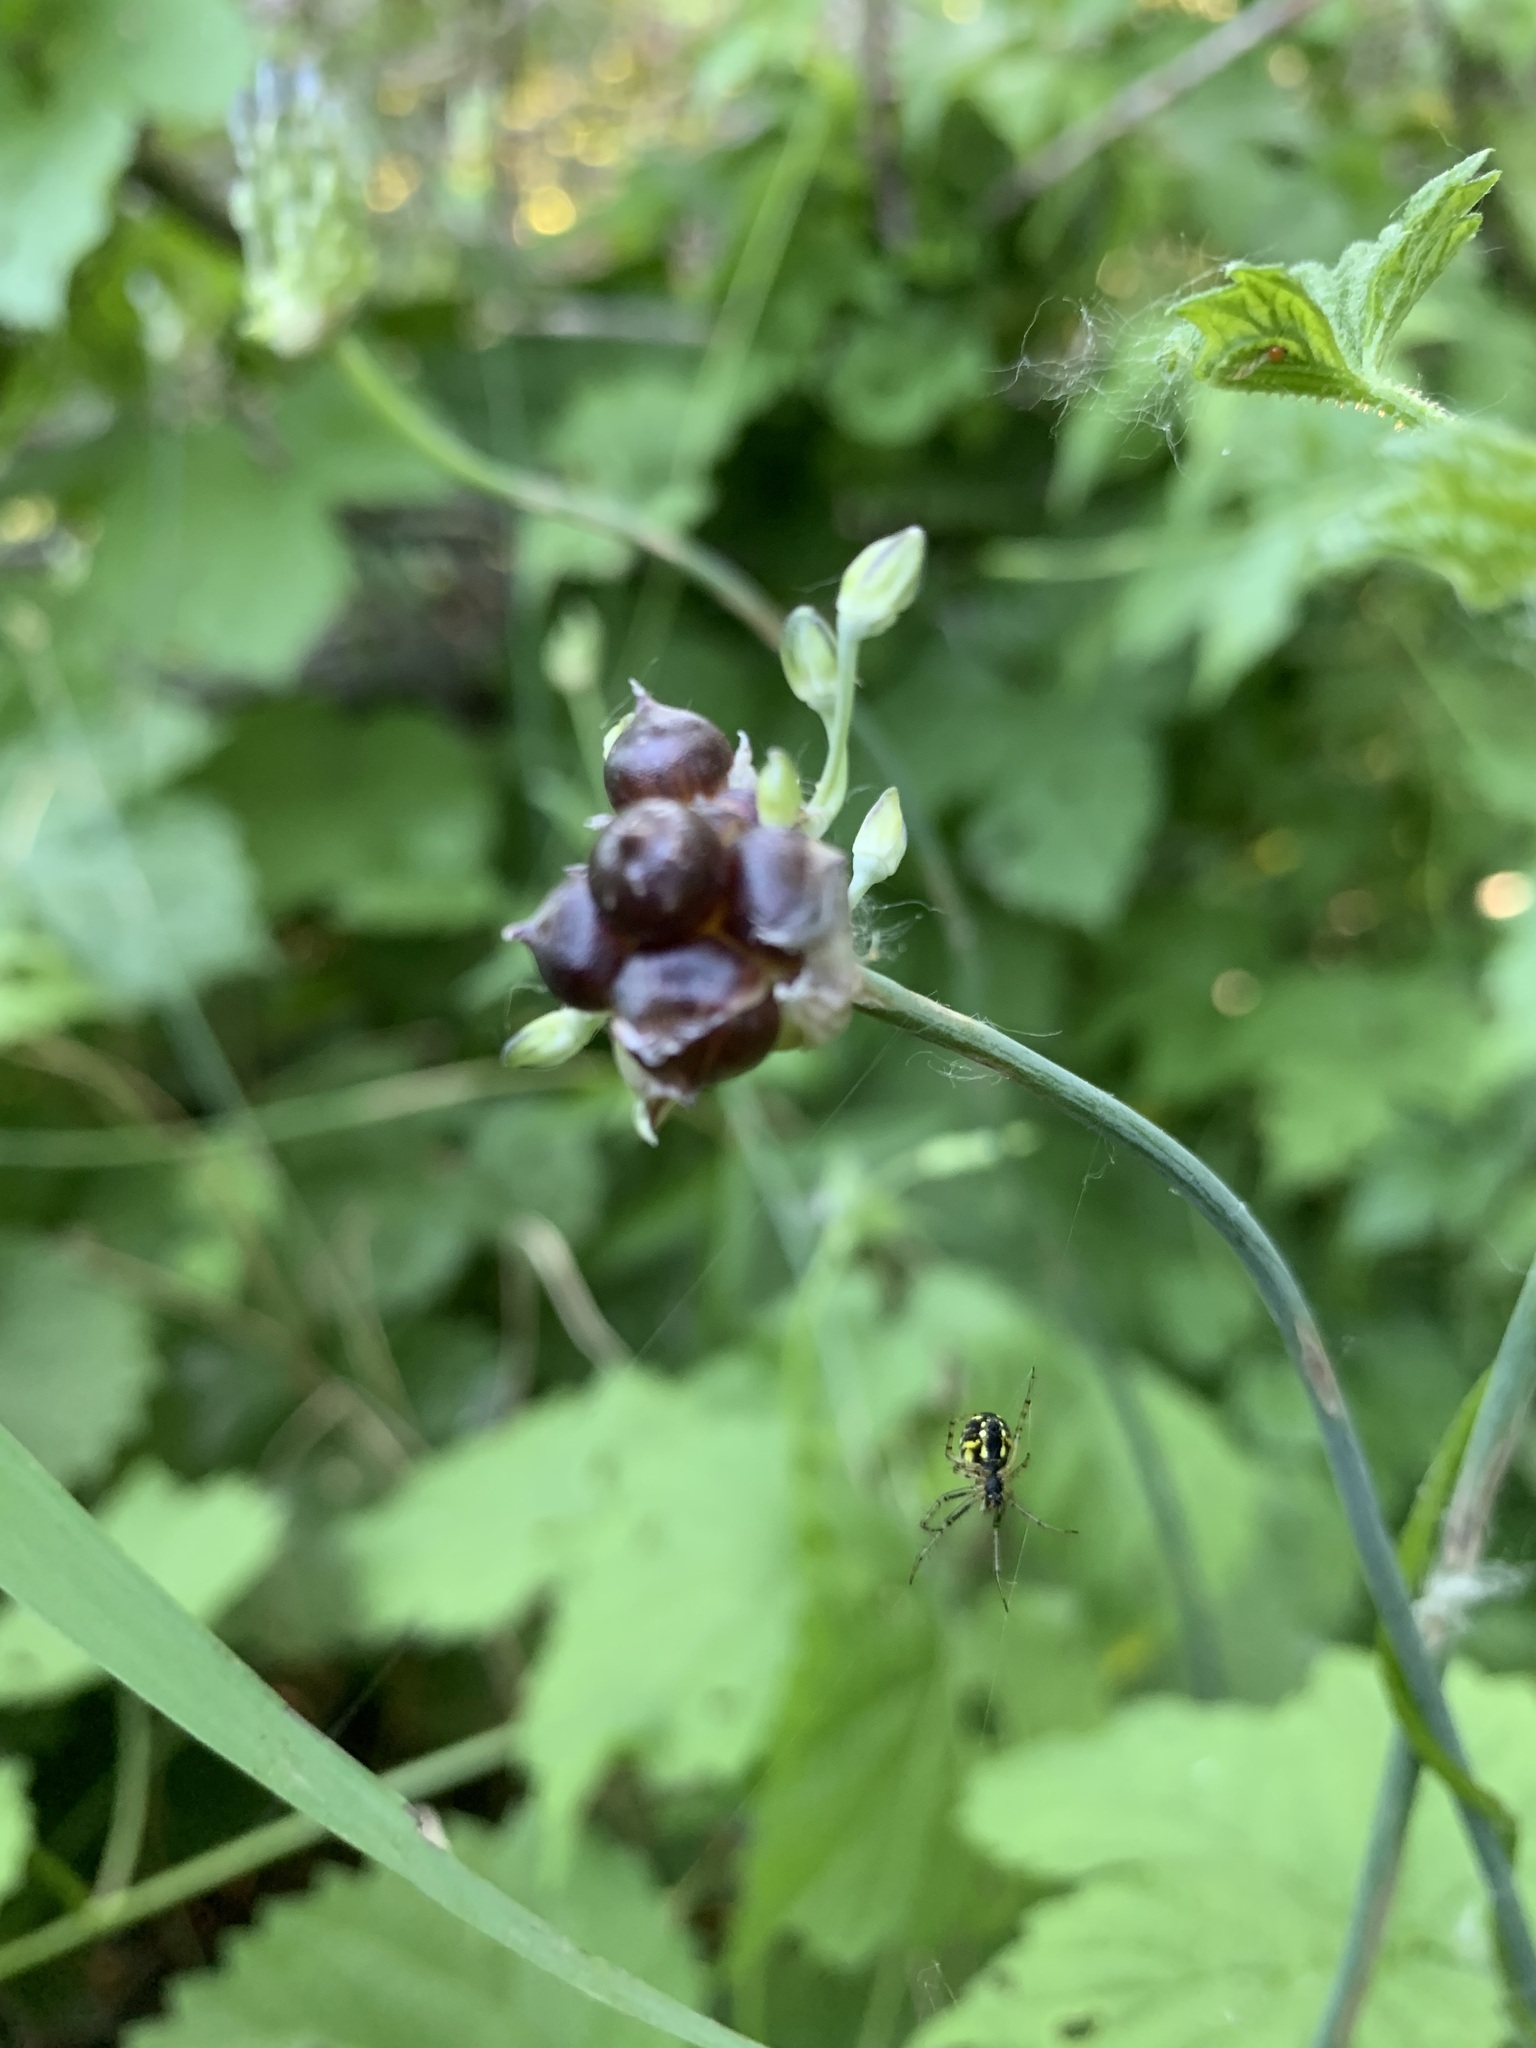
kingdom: Plantae
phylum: Tracheophyta
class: Liliopsida
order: Asparagales
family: Amaryllidaceae
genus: Allium
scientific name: Allium caeruleum
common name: Blue-of-the-heavens
